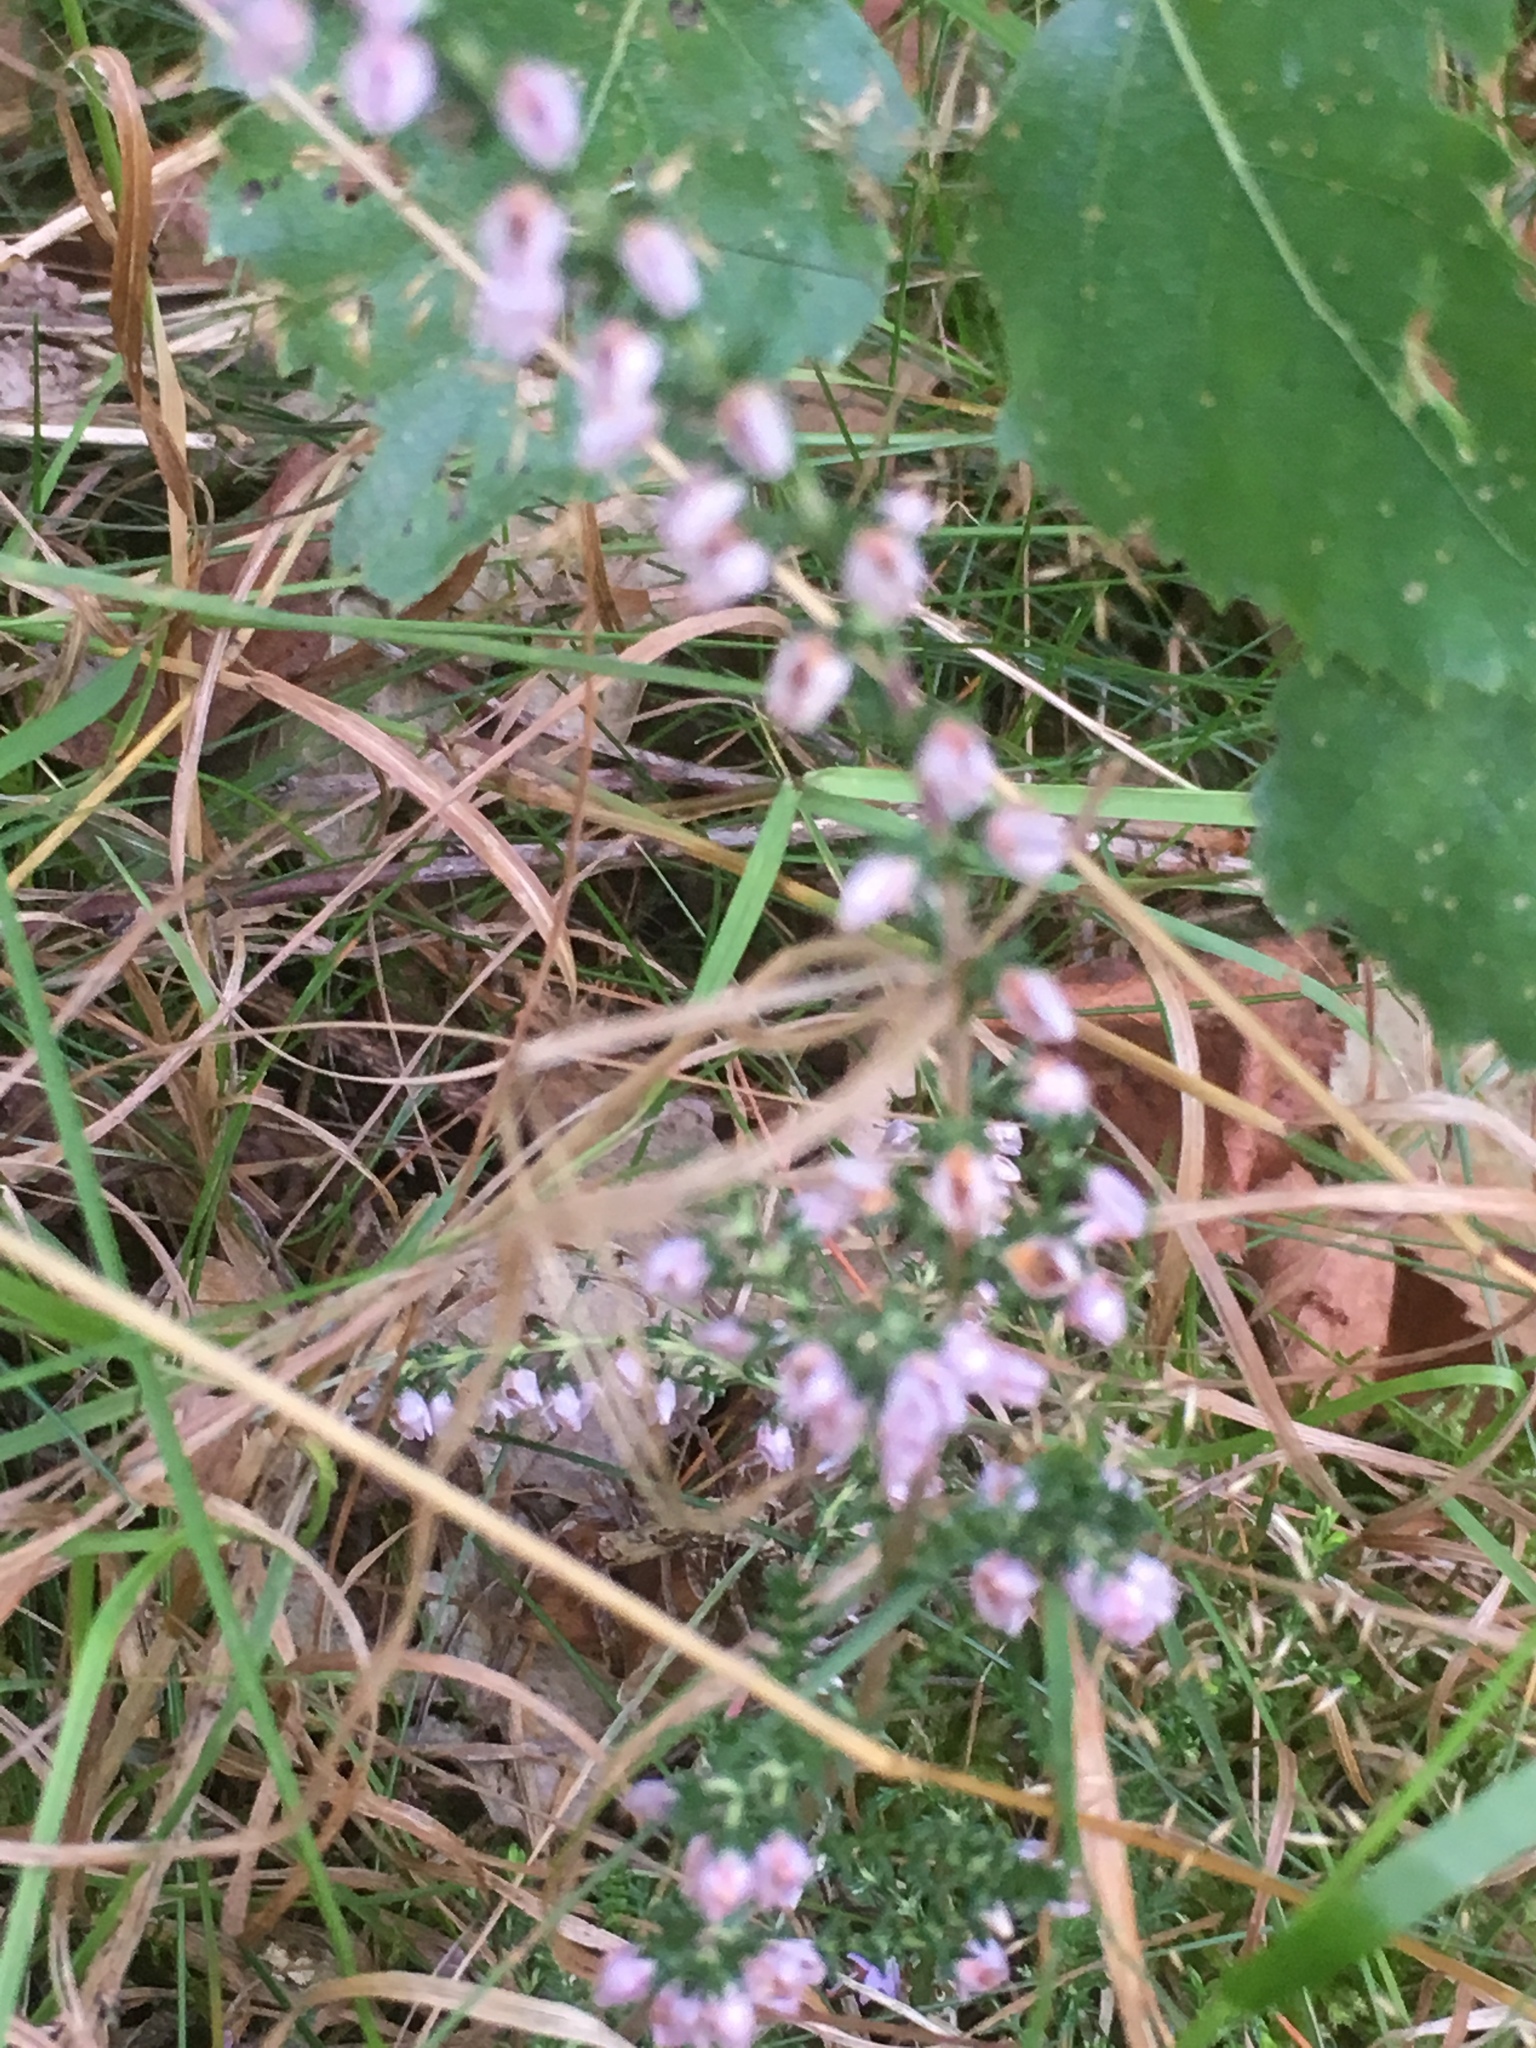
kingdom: Plantae
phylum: Tracheophyta
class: Magnoliopsida
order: Ericales
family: Ericaceae
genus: Calluna
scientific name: Calluna vulgaris
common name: Heather
